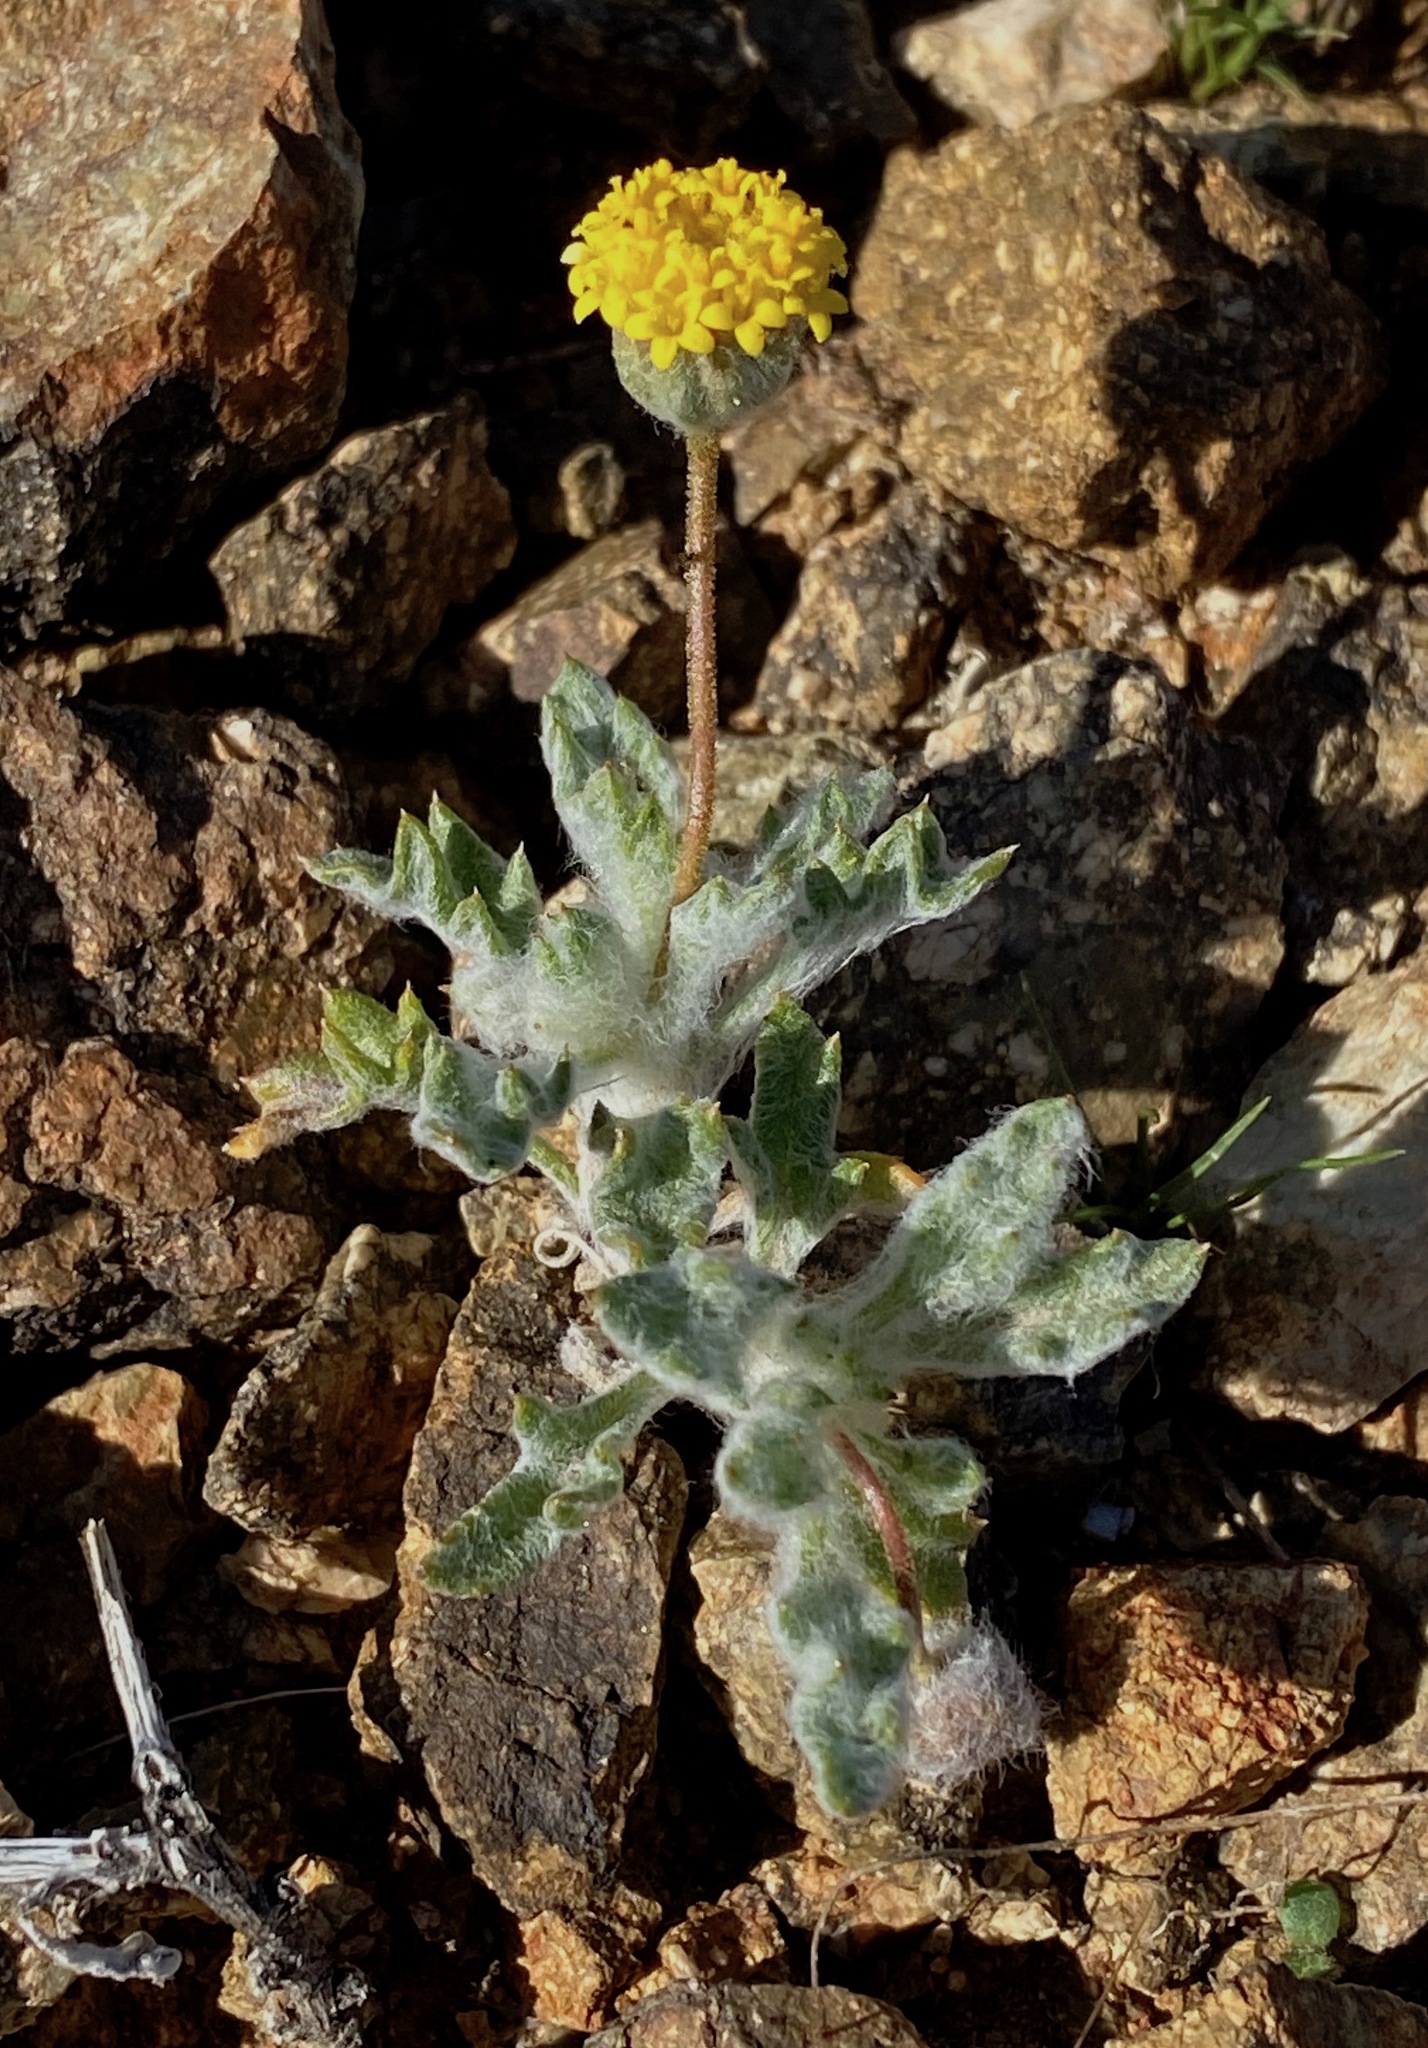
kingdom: Plantae
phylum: Tracheophyta
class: Magnoliopsida
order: Asterales
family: Asteraceae
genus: Trichoptilium
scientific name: Trichoptilium incisum
